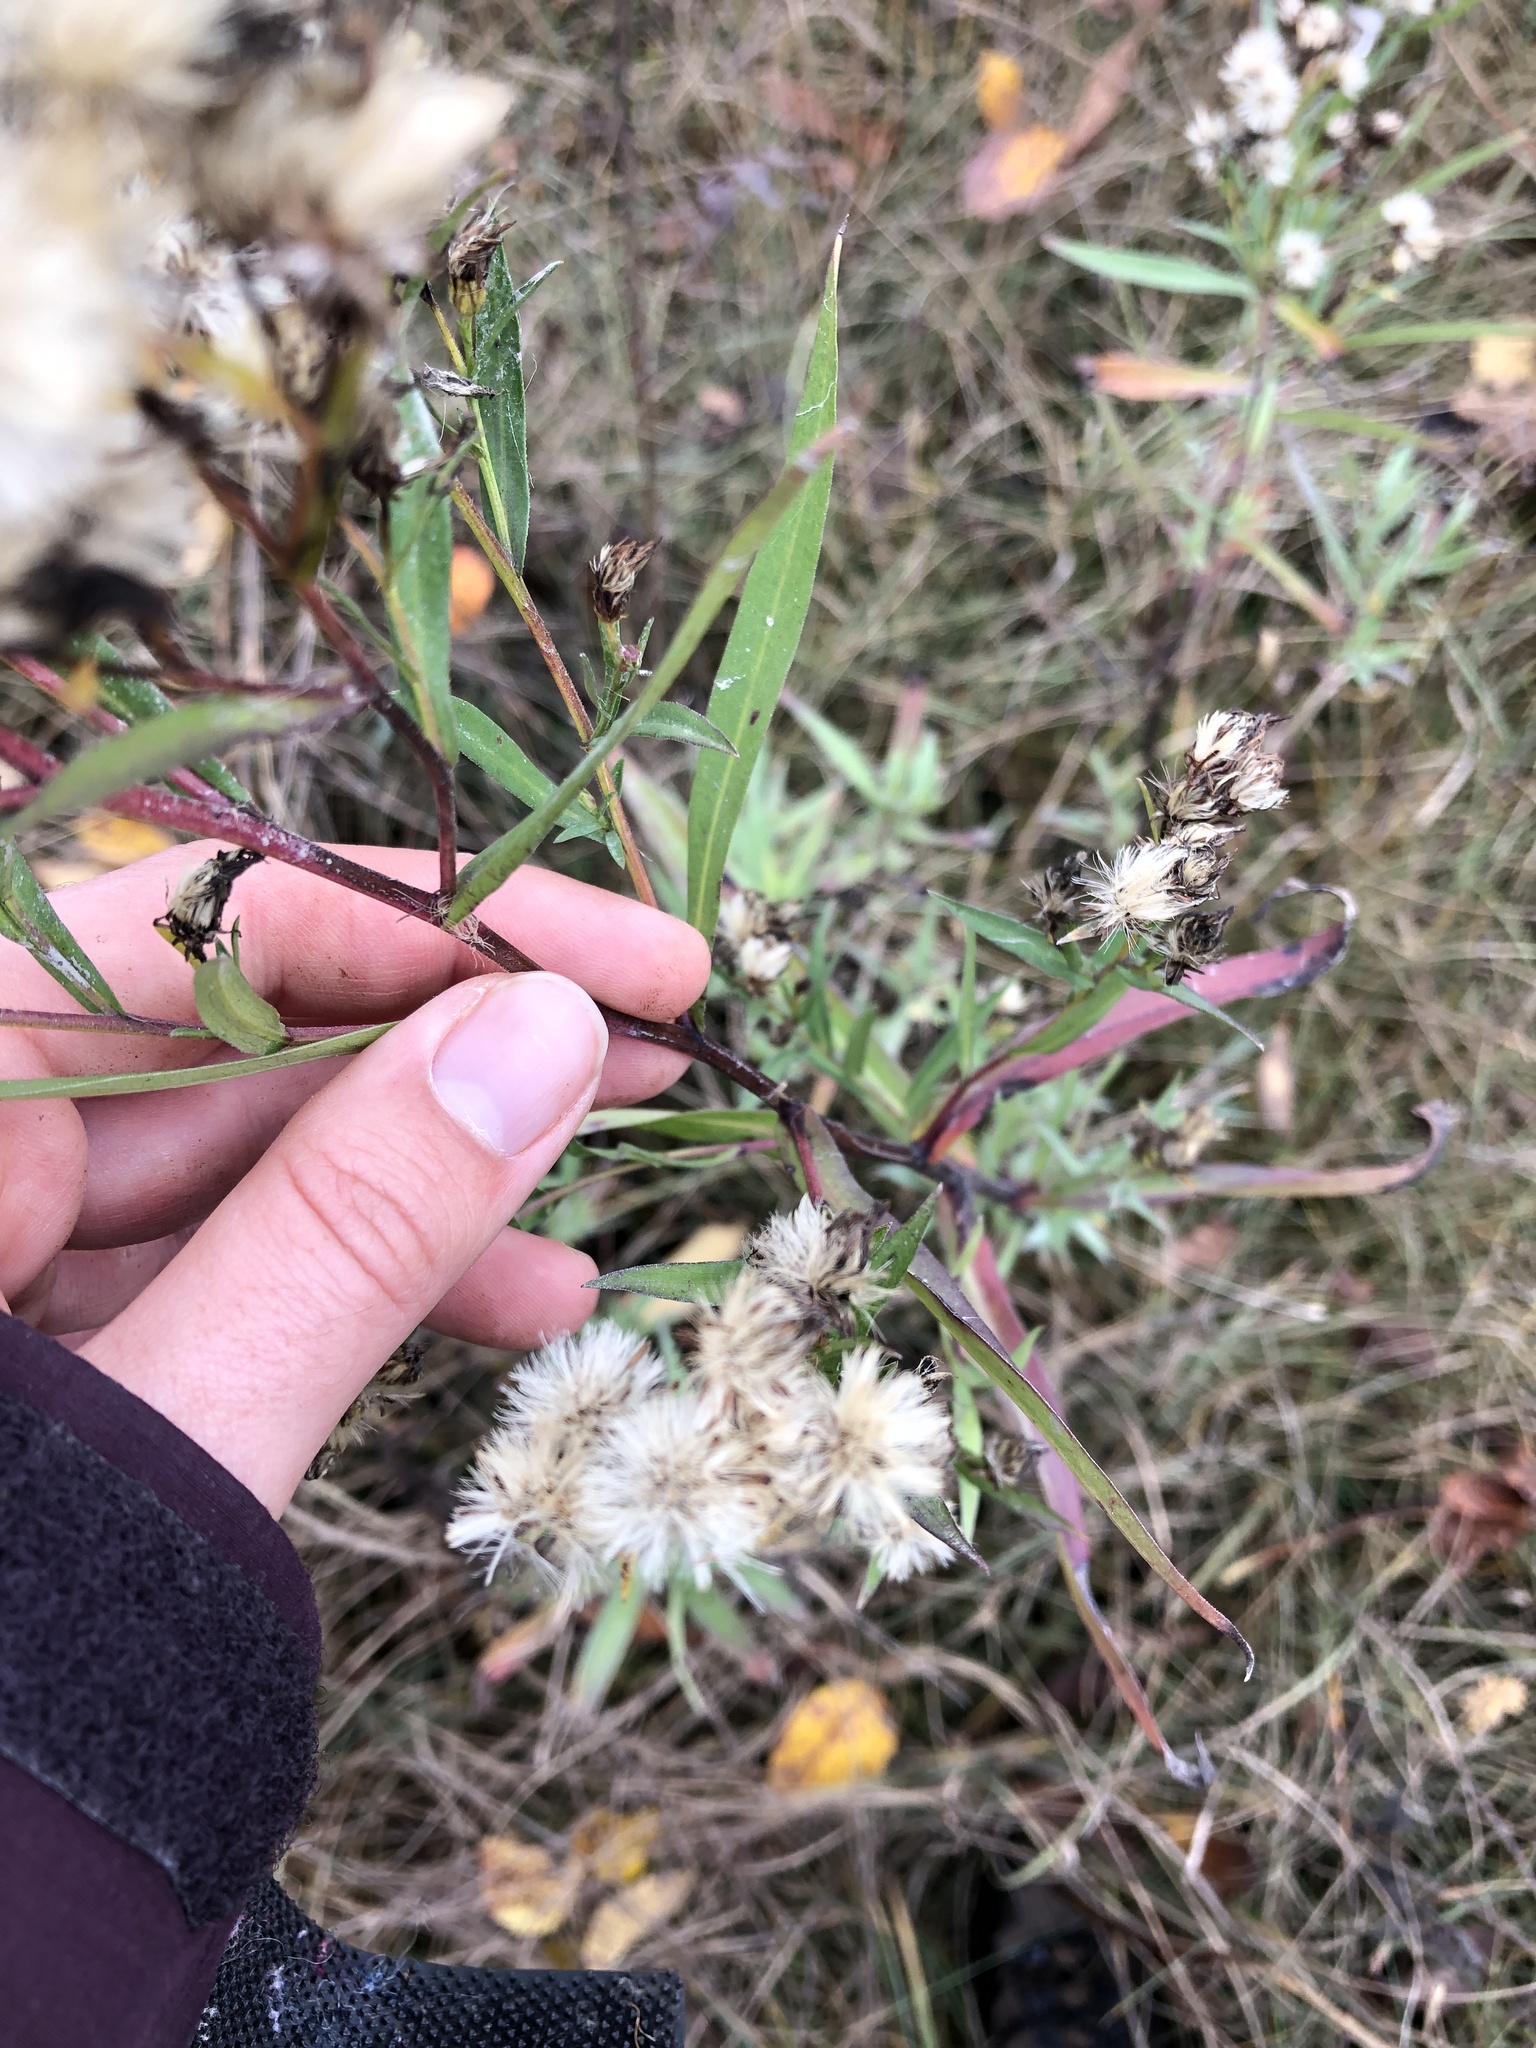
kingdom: Plantae
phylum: Tracheophyta
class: Magnoliopsida
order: Asterales
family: Asteraceae
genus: Symphyotrichum
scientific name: Symphyotrichum novi-belgii
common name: Michaelmas daisy
